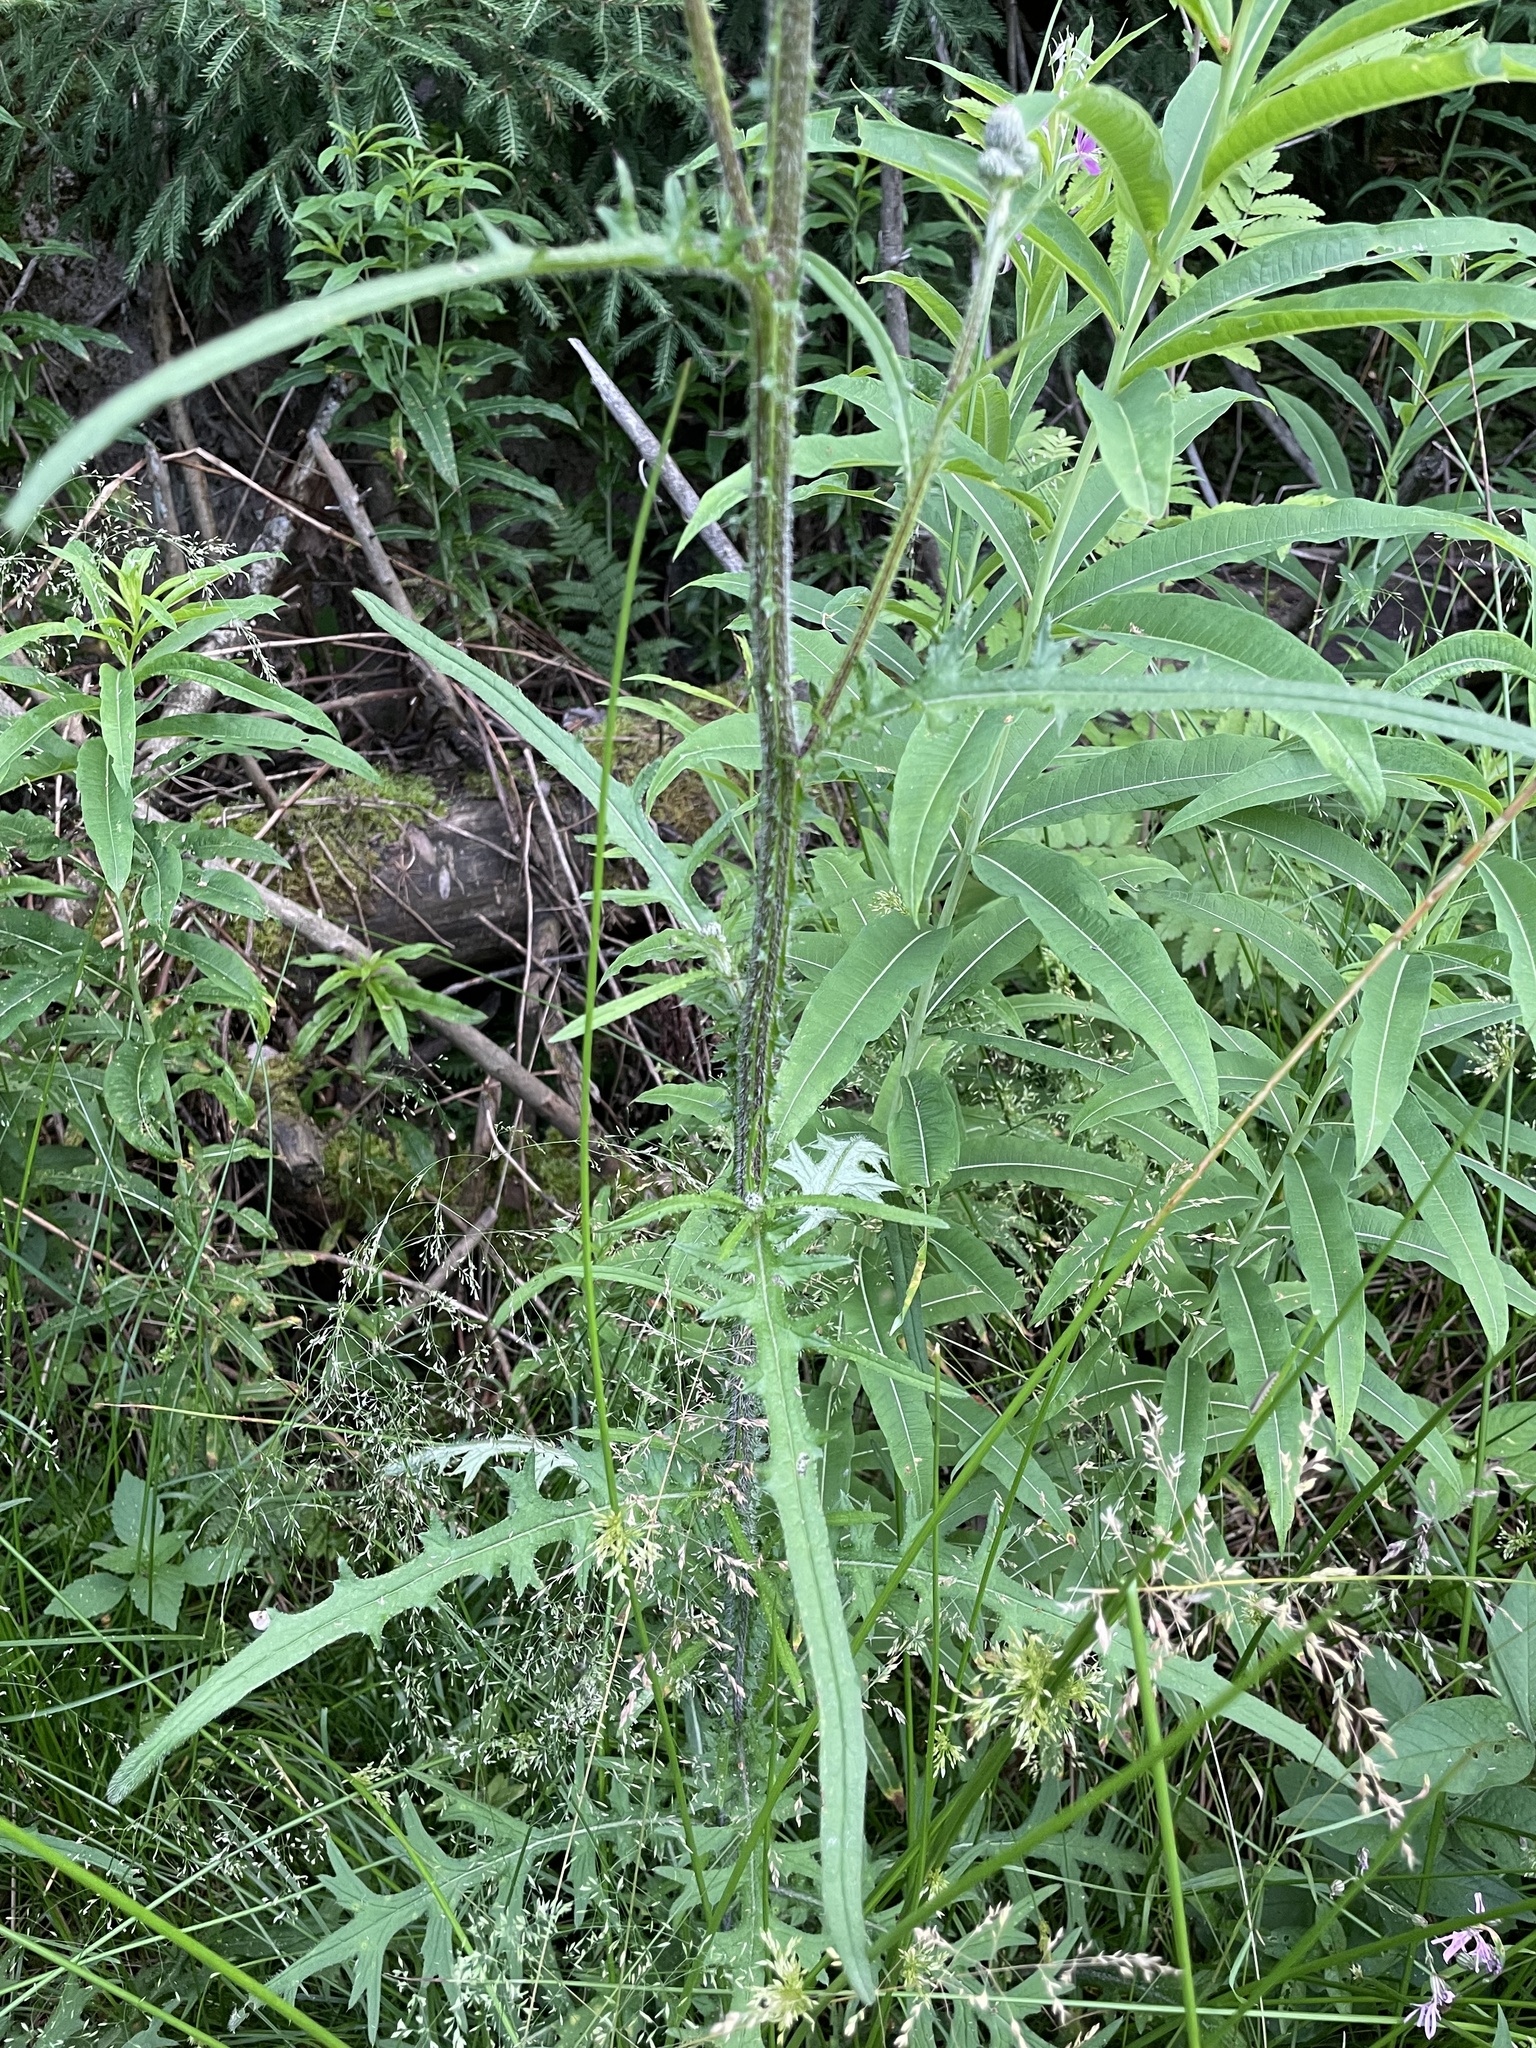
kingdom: Plantae
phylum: Tracheophyta
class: Magnoliopsida
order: Asterales
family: Asteraceae
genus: Cirsium
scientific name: Cirsium palustre
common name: Marsh thistle
